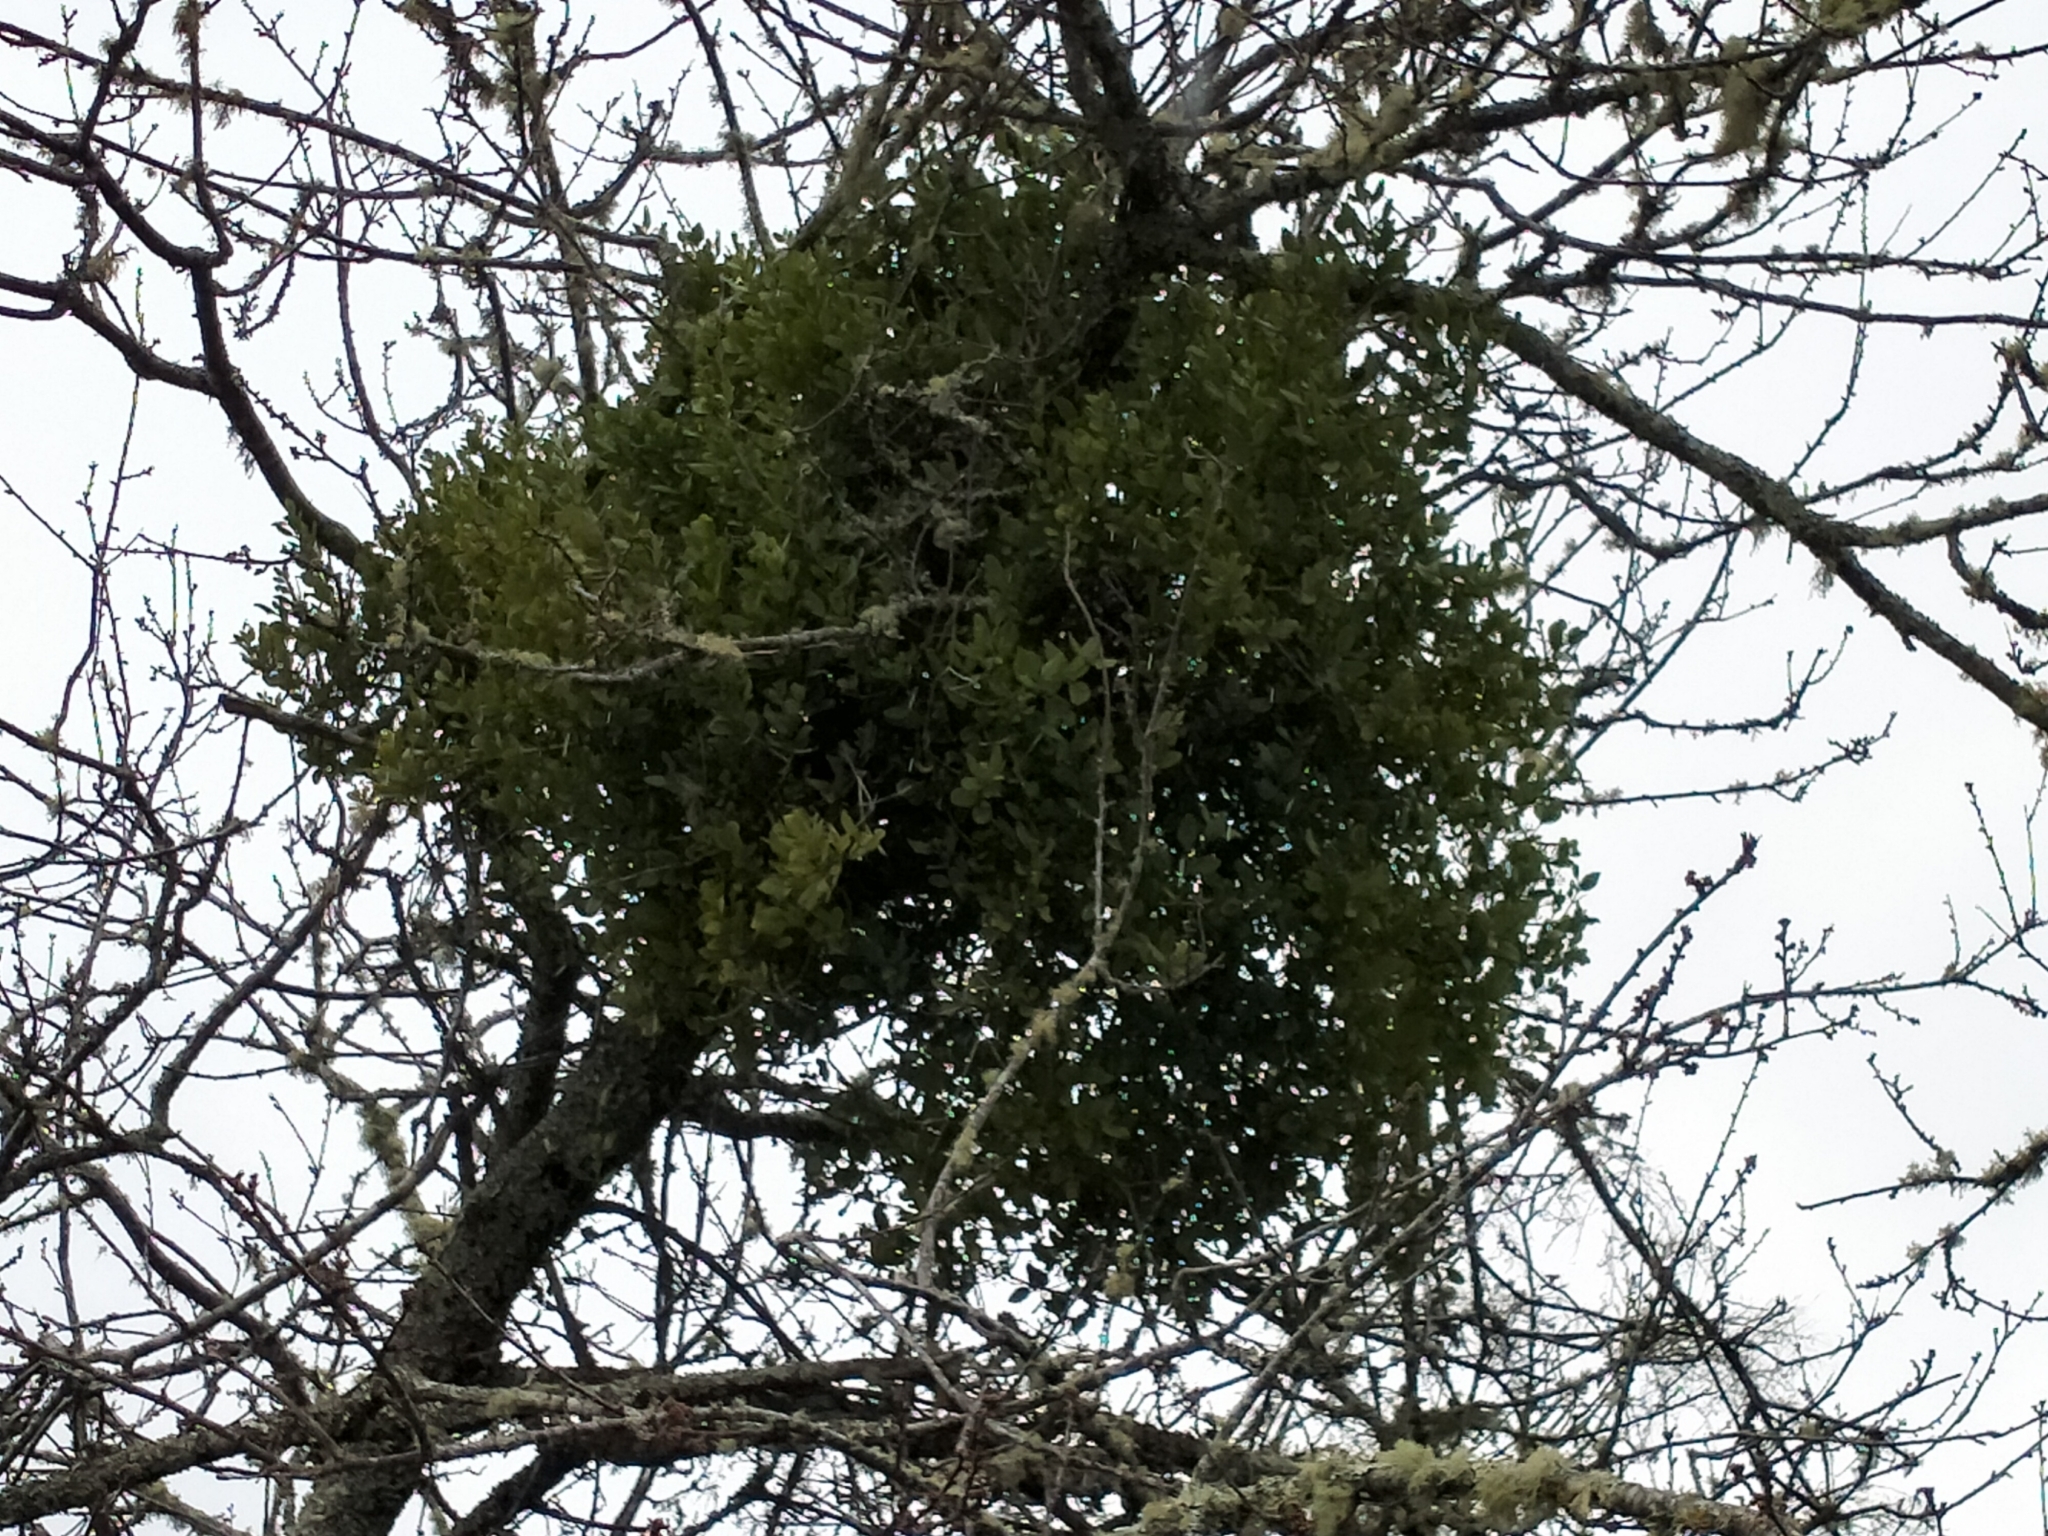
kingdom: Plantae
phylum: Tracheophyta
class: Magnoliopsida
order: Santalales
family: Loranthaceae
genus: Ileostylus
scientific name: Ileostylus micranthus
